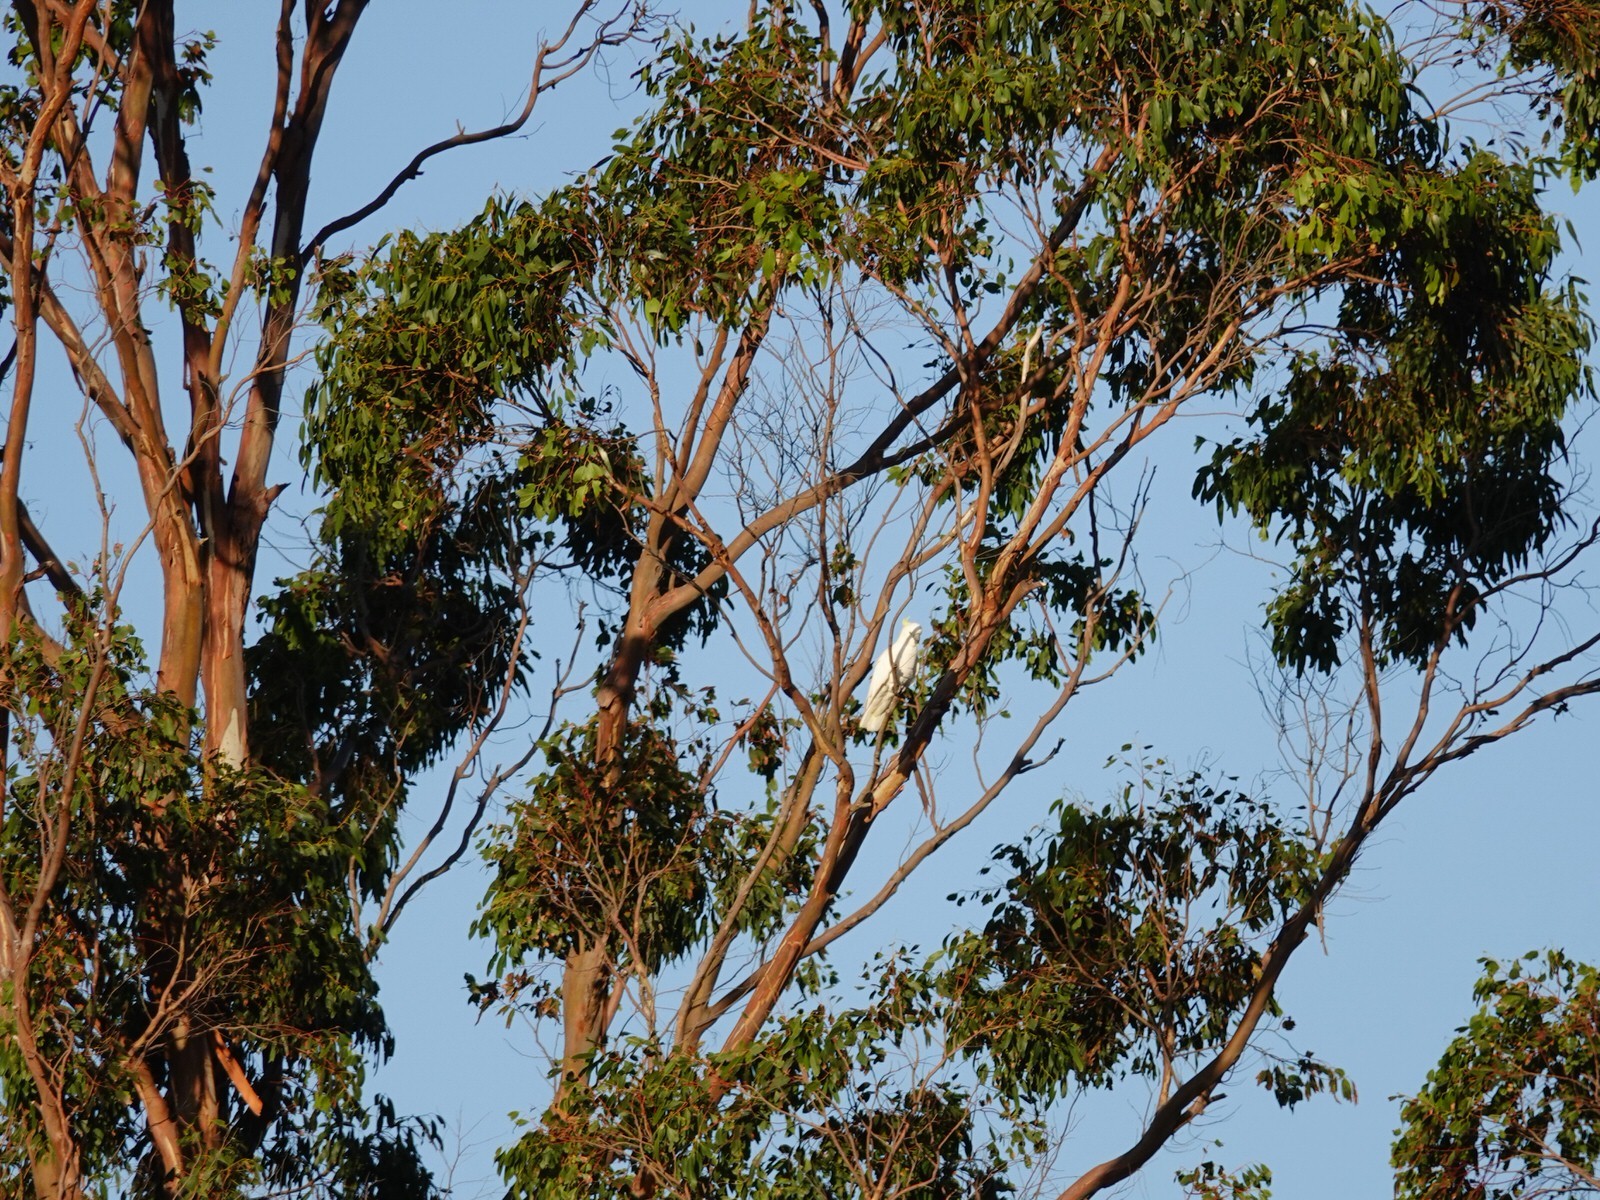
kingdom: Animalia
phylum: Chordata
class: Aves
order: Psittaciformes
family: Psittacidae
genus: Cacatua
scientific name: Cacatua galerita
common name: Sulphur-crested cockatoo
